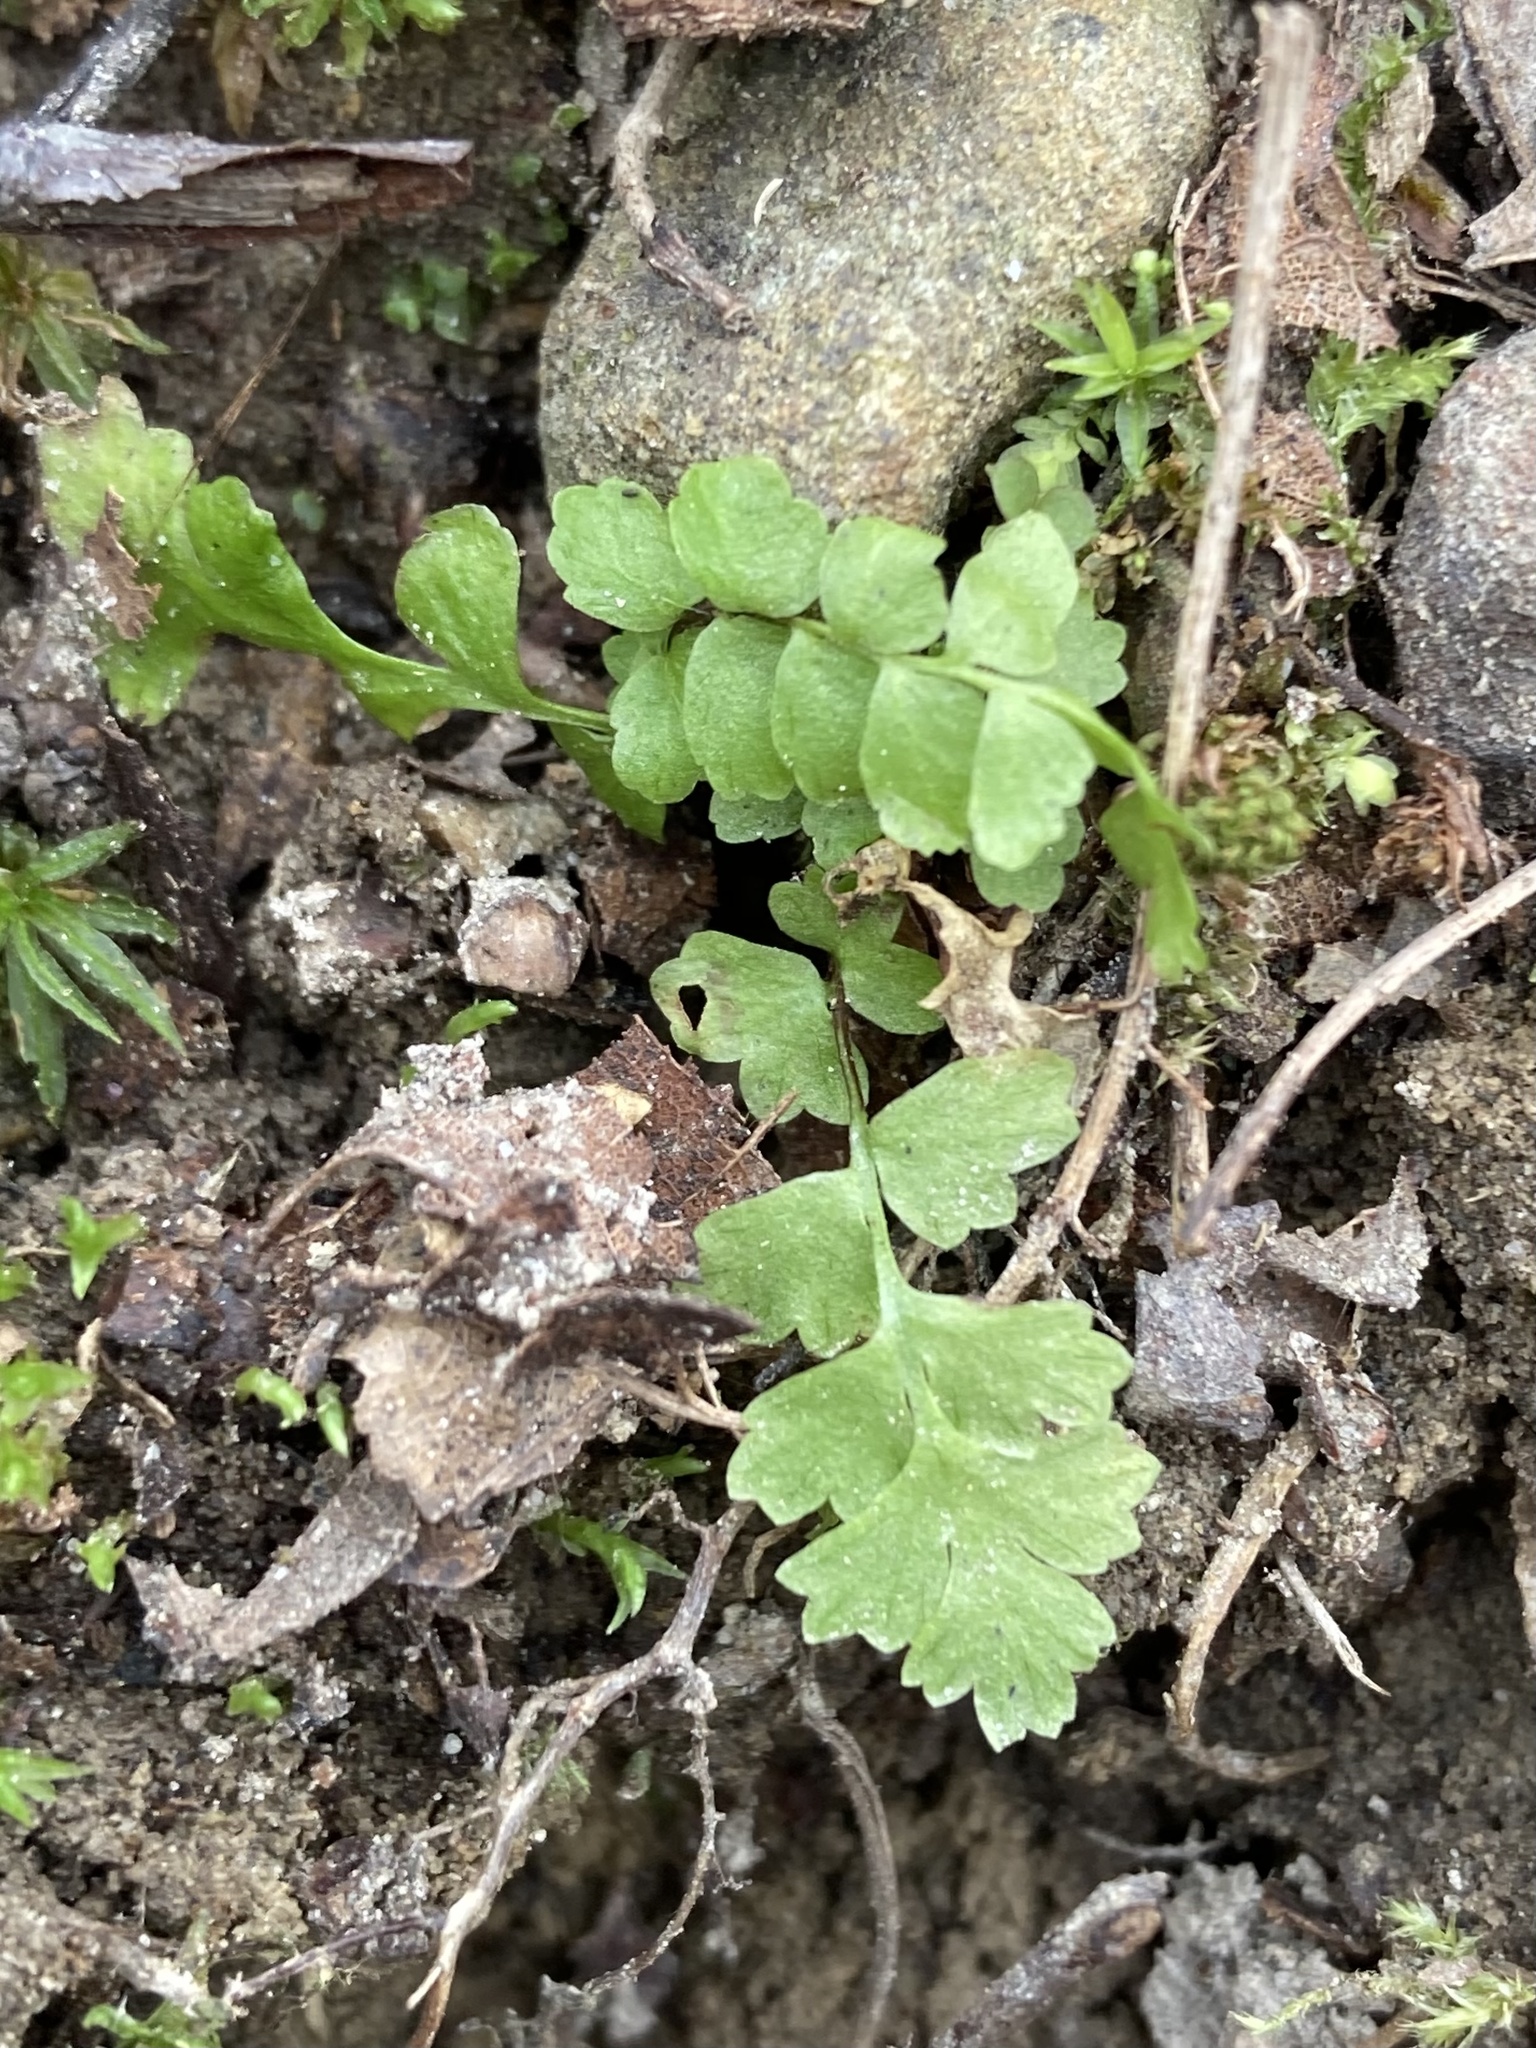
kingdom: Plantae
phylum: Tracheophyta
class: Polypodiopsida
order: Polypodiales
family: Aspleniaceae
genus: Asplenium
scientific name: Asplenium platyneuron
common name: Ebony spleenwort
